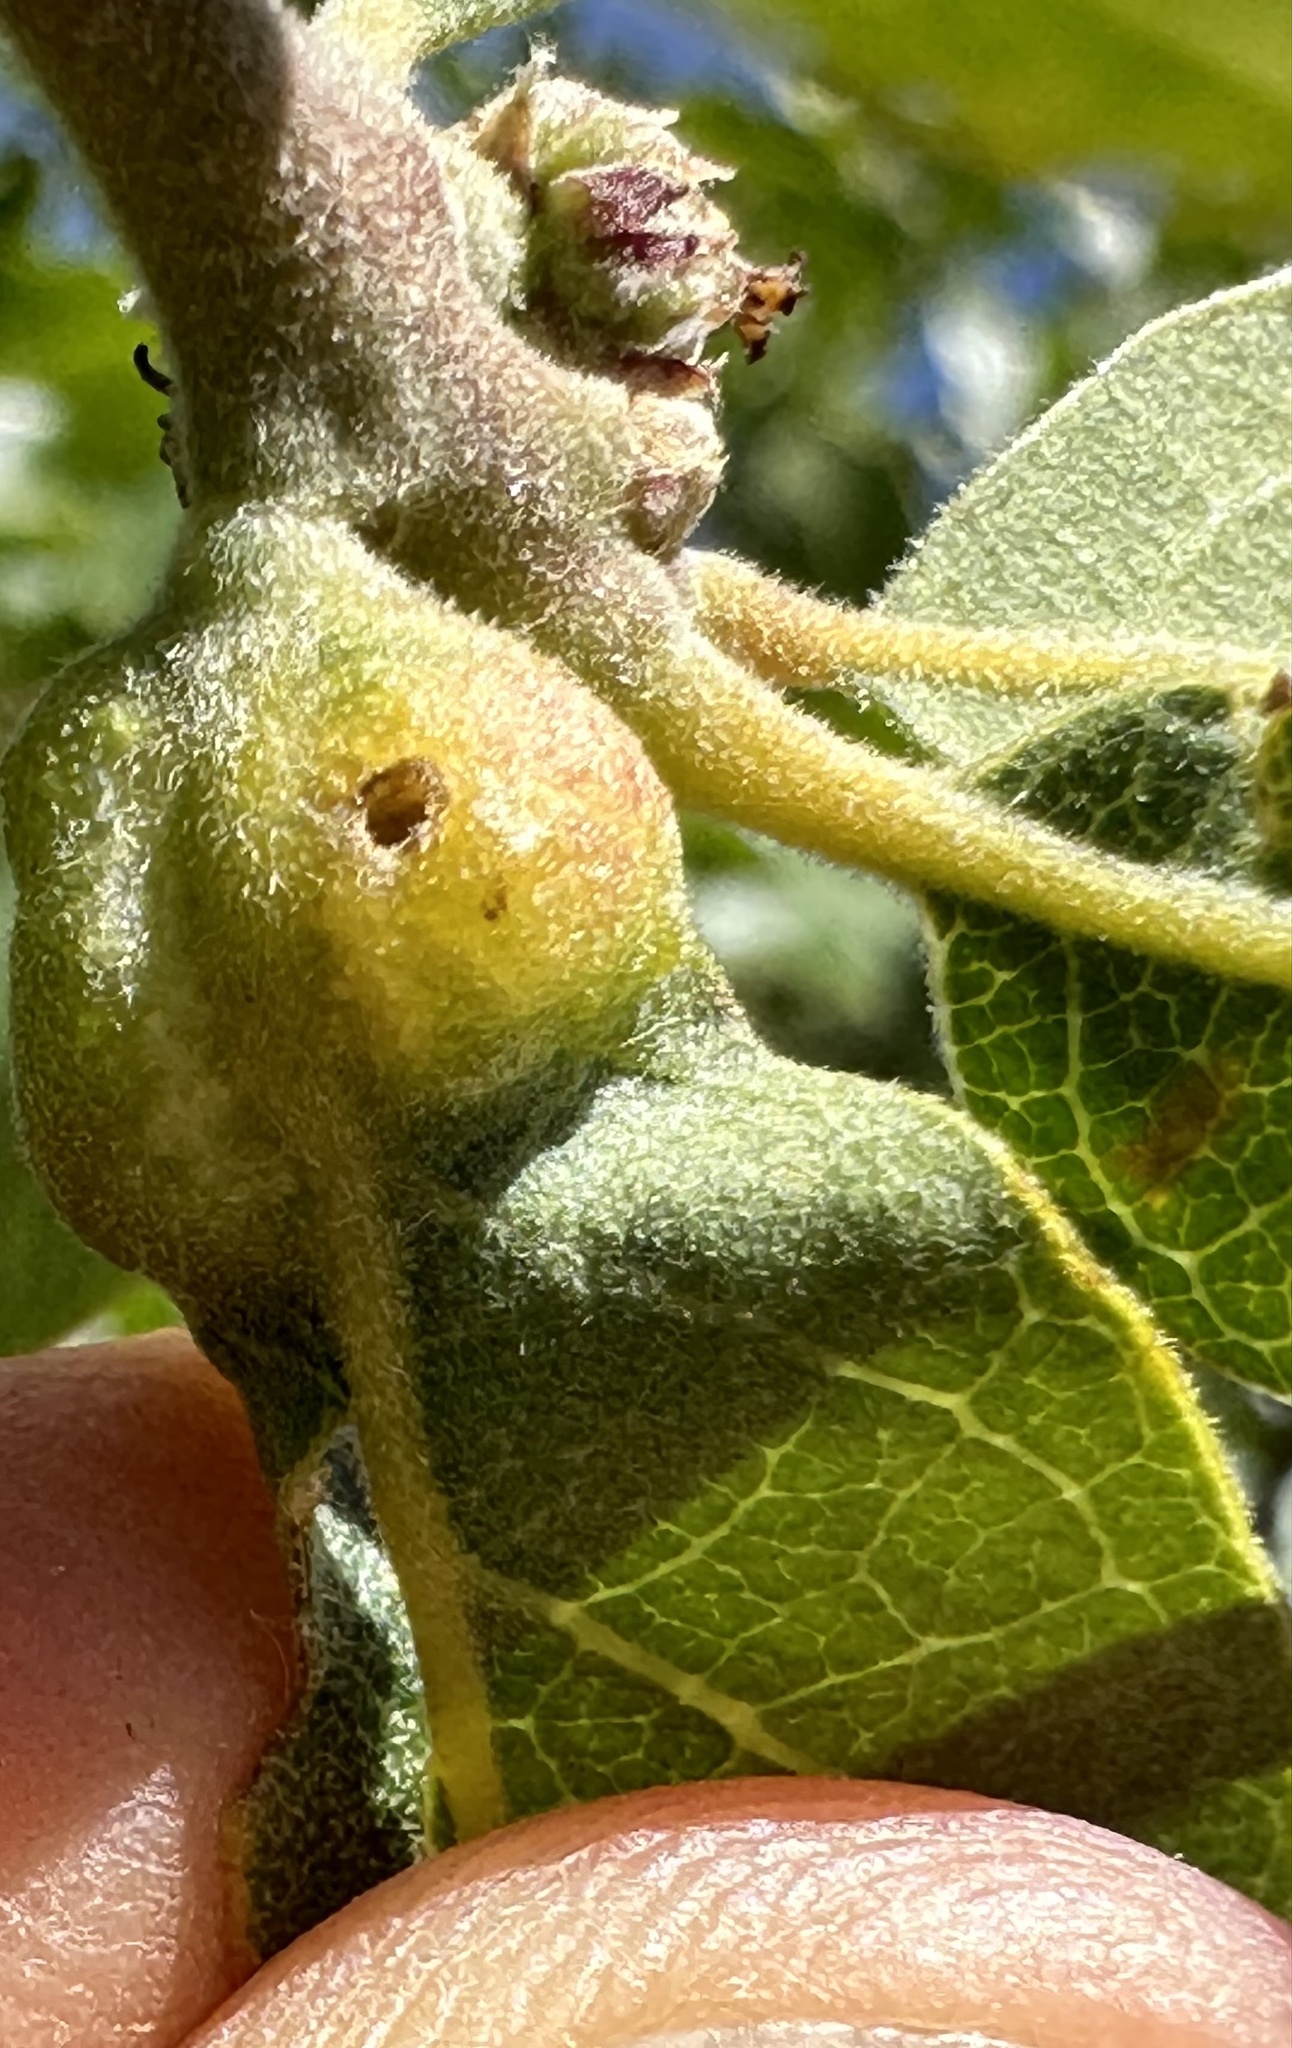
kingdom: Animalia
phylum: Arthropoda
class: Insecta
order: Hymenoptera
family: Cynipidae
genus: Neuroterus
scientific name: Neuroterus
